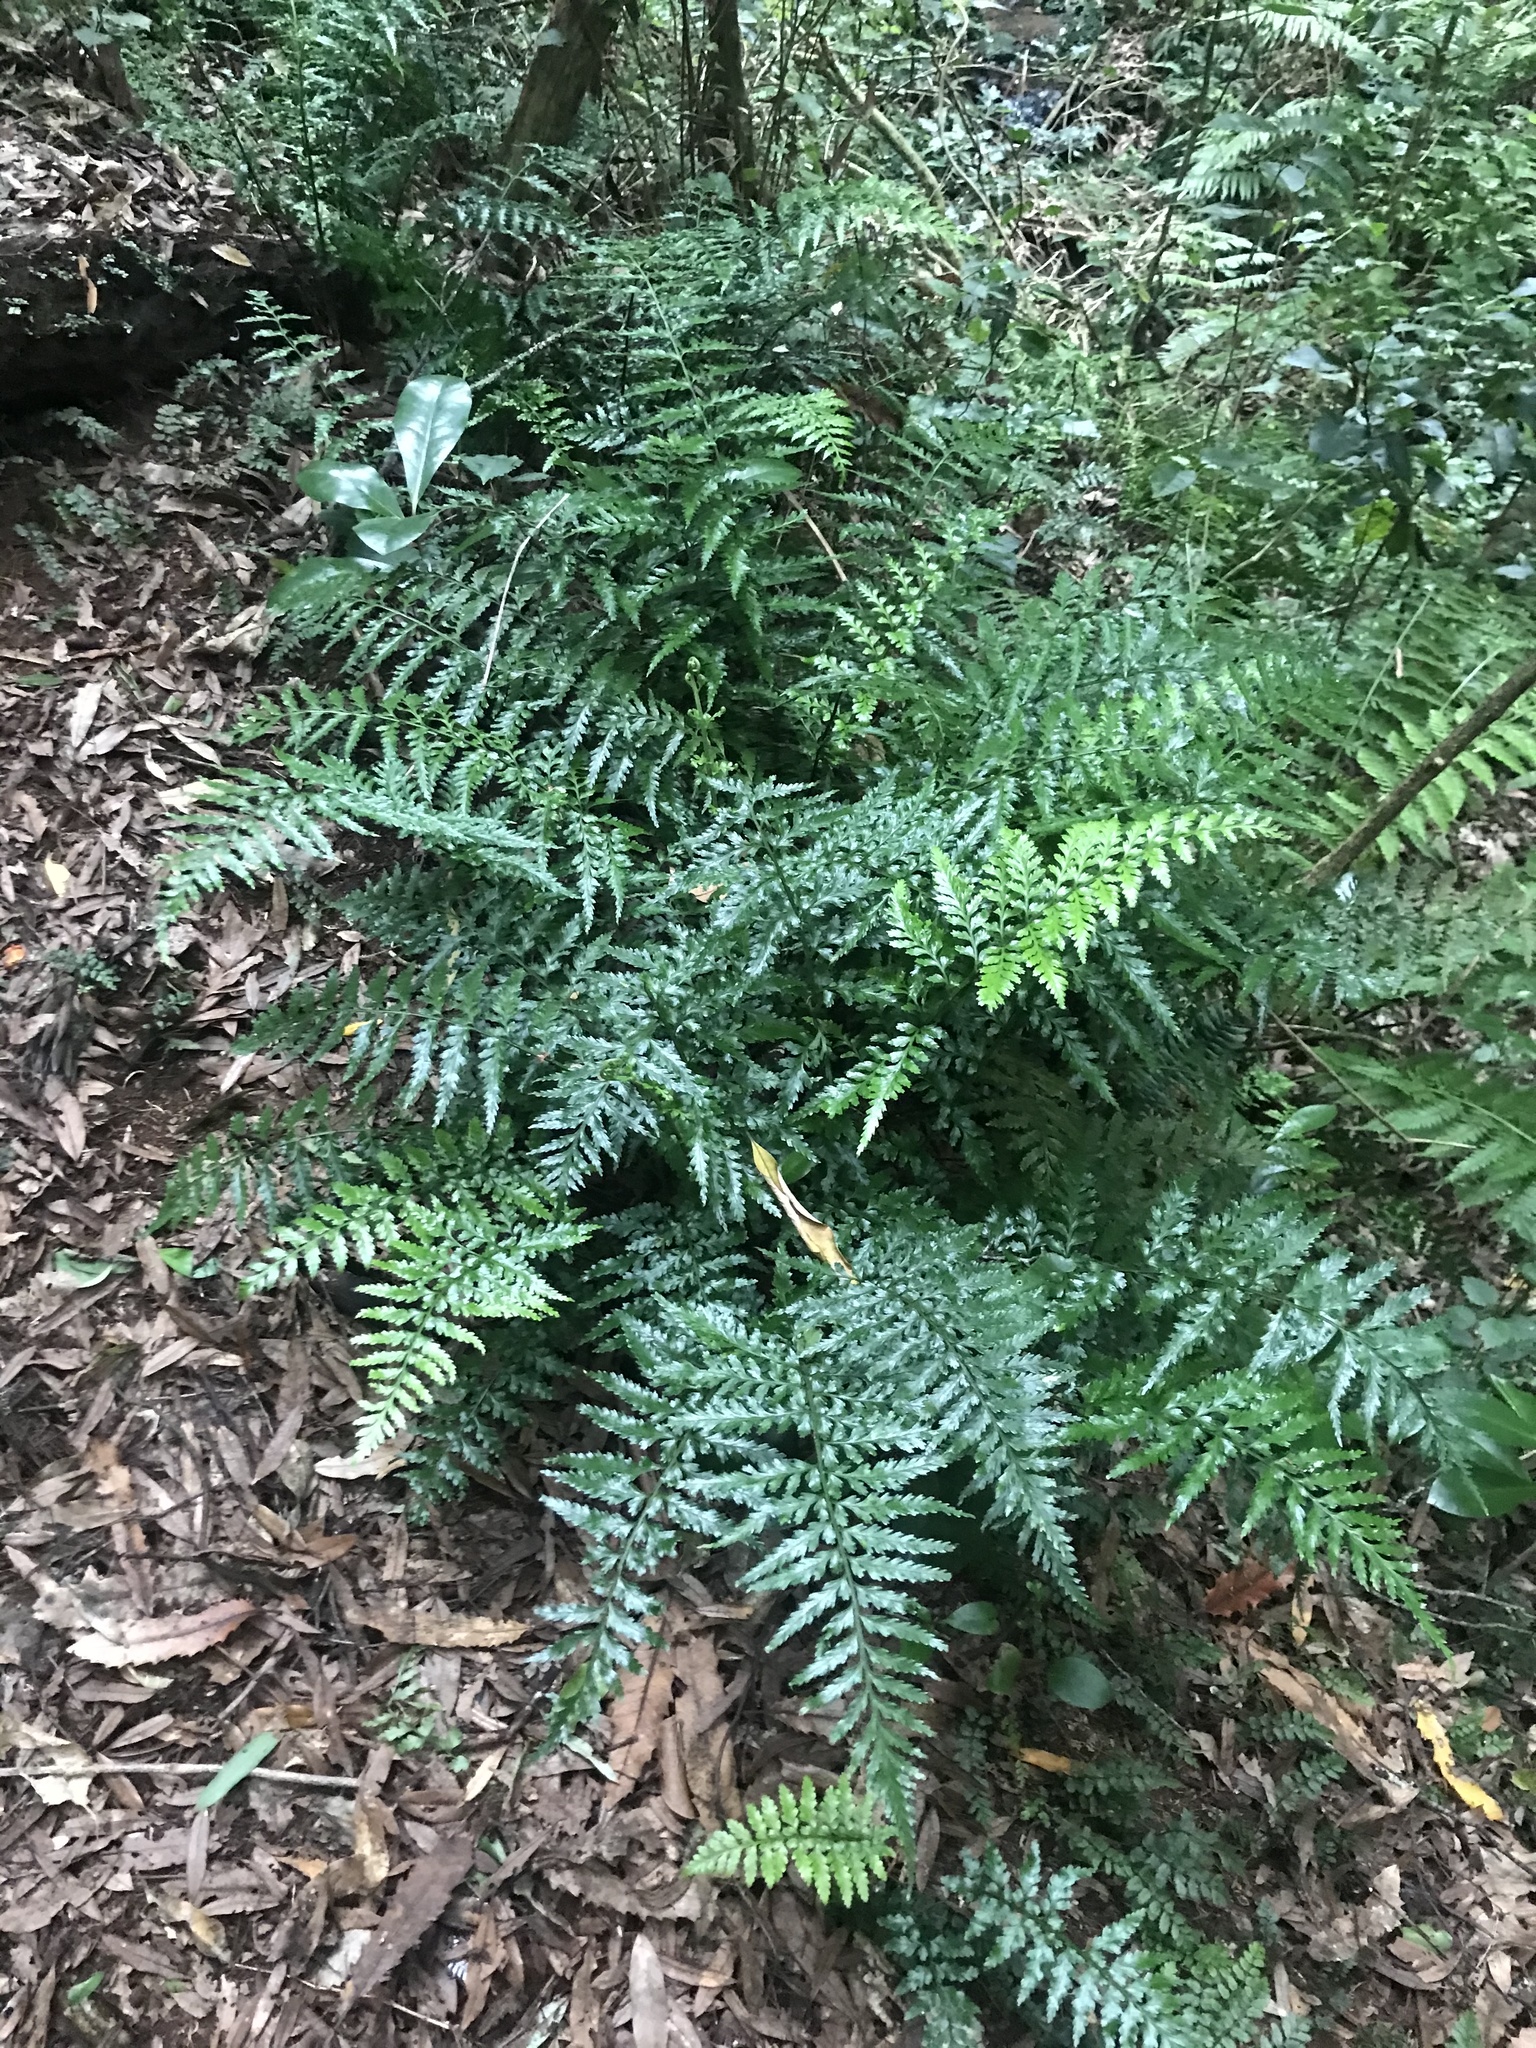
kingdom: Plantae
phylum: Tracheophyta
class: Polypodiopsida
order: Polypodiales
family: Aspleniaceae
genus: Asplenium
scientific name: Asplenium lamprophyllum
